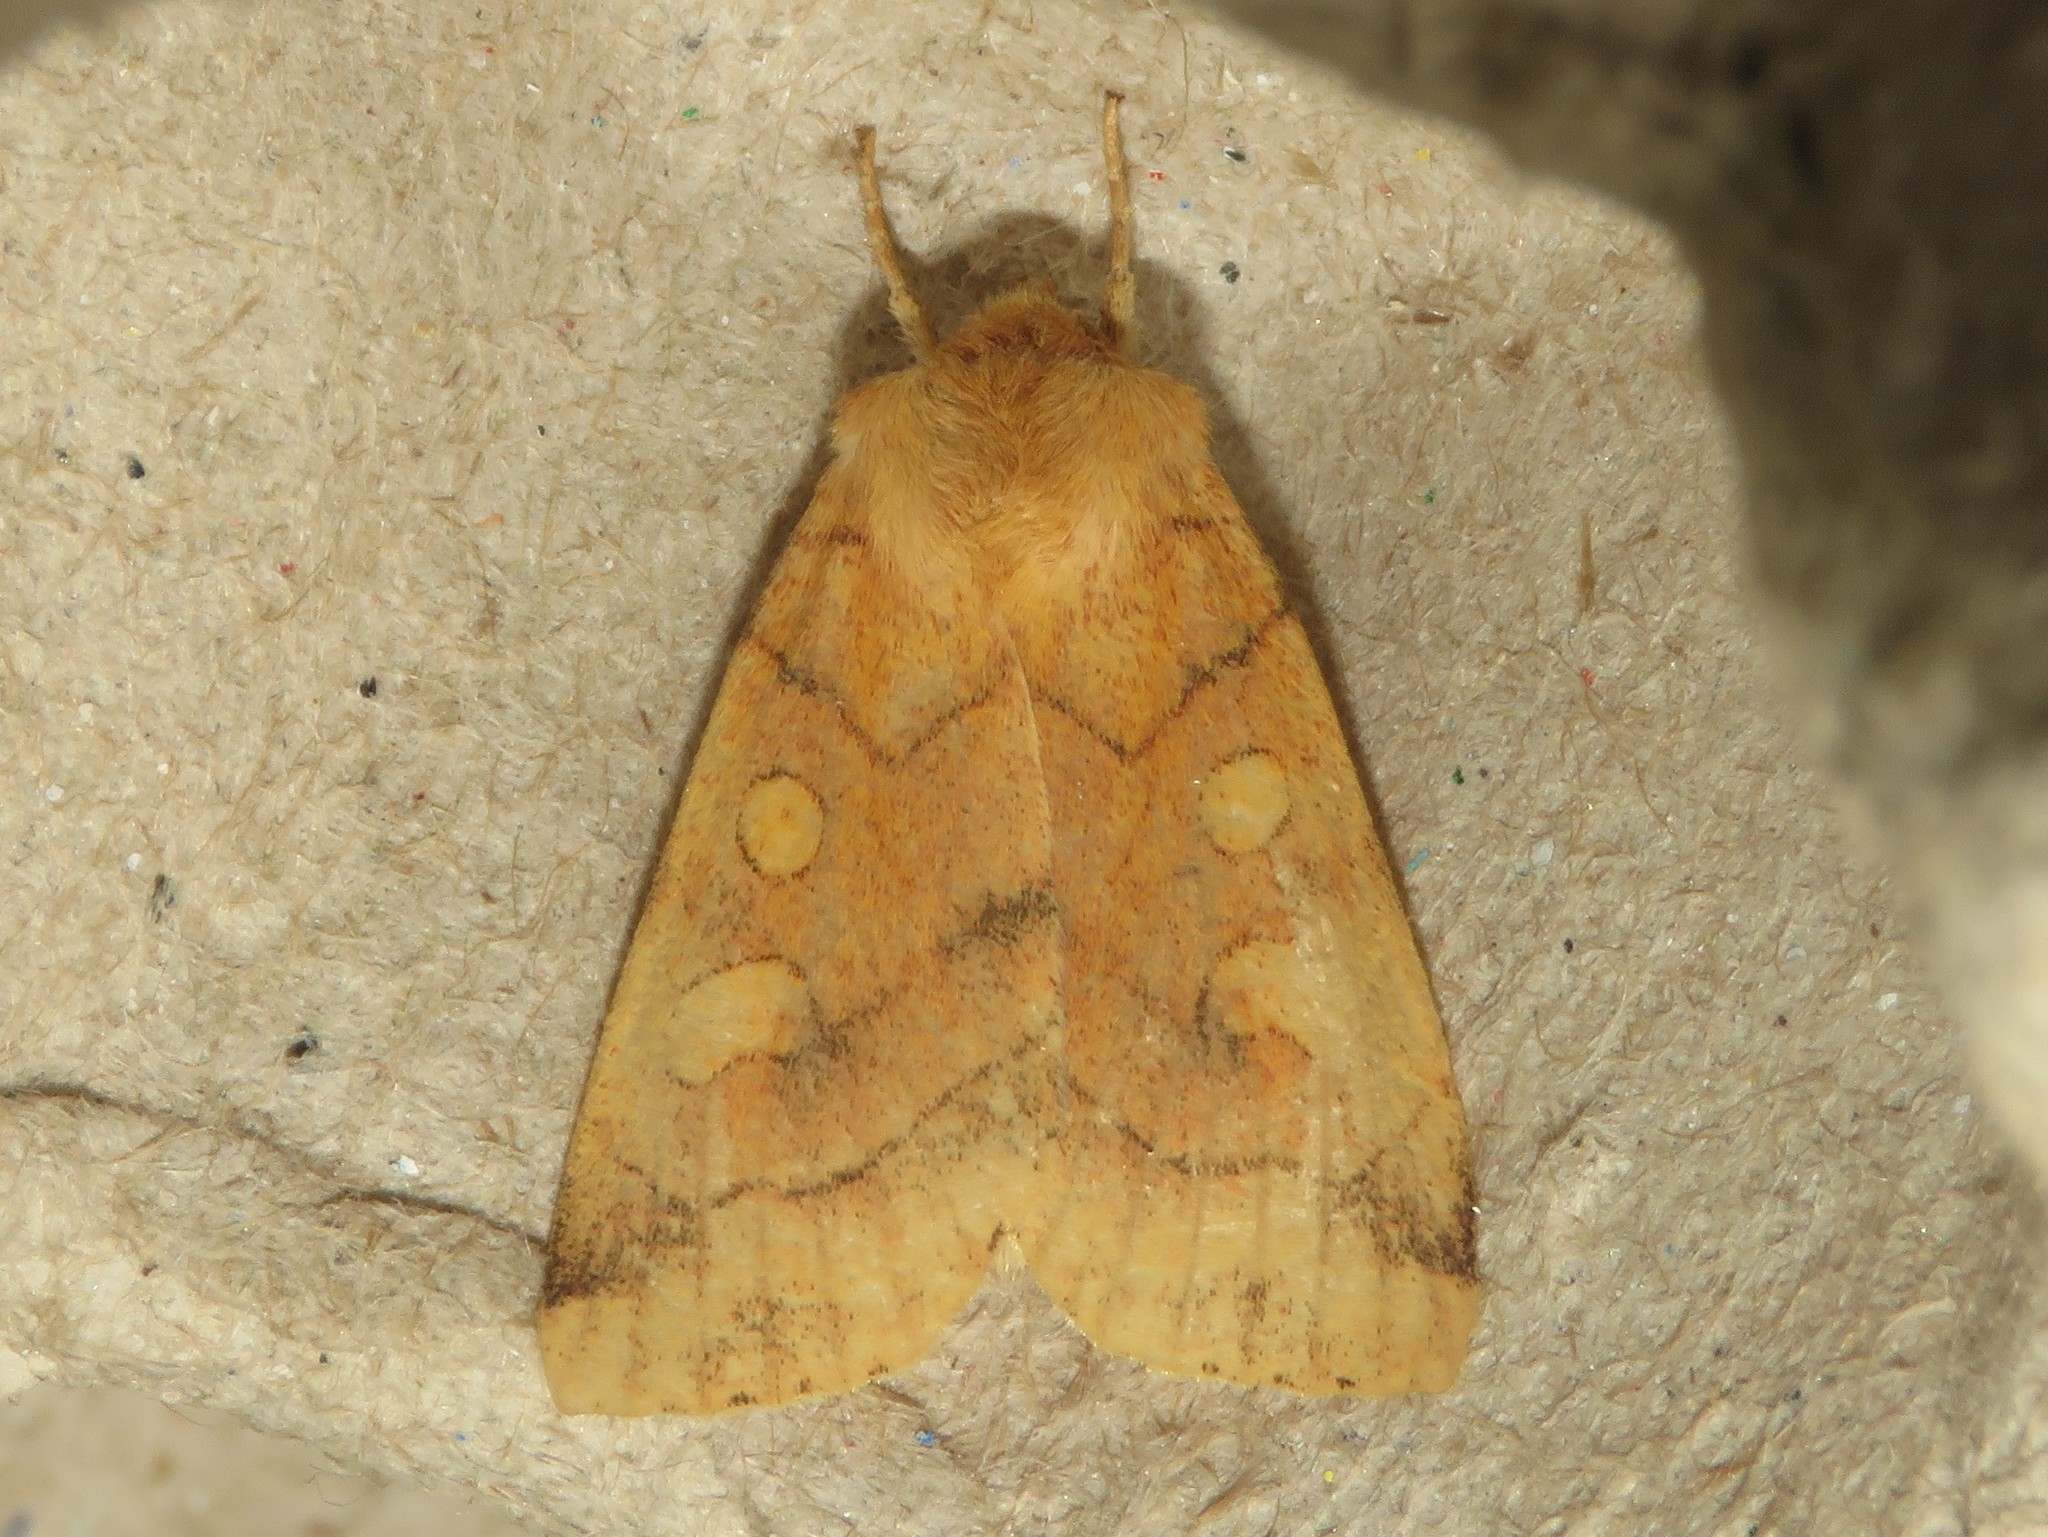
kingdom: Animalia
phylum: Arthropoda
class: Insecta
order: Lepidoptera
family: Noctuidae
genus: Enargia
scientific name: Enargia decolor
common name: Aspen twoleaf tier moth
